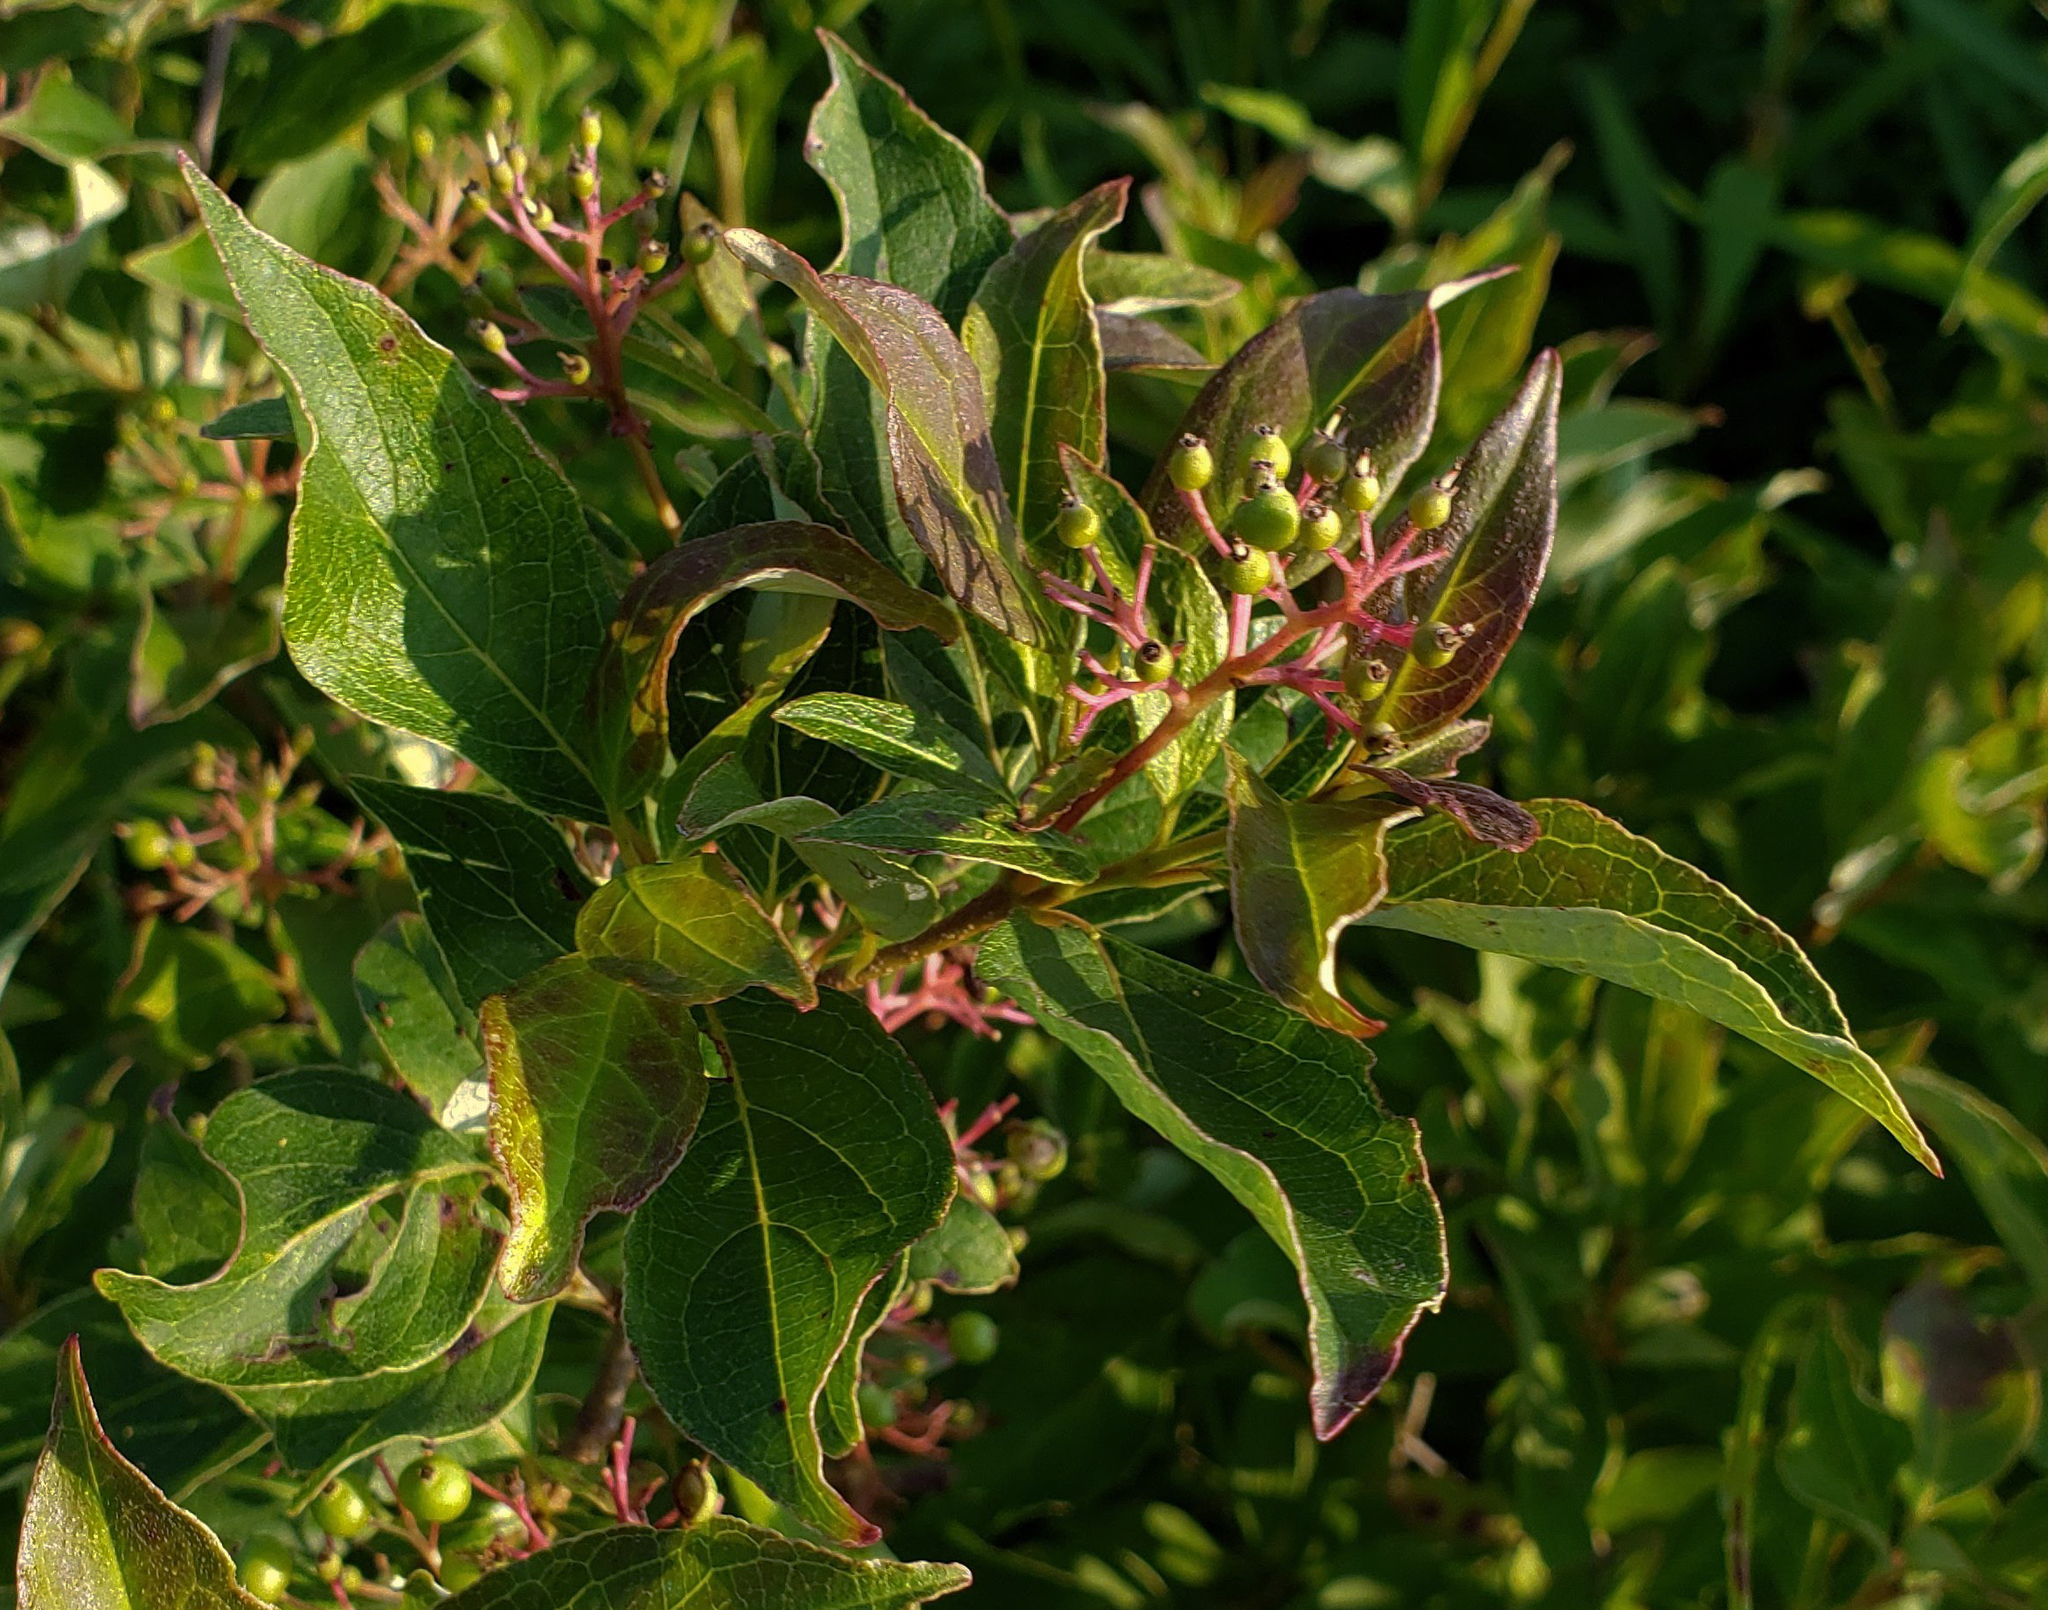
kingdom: Plantae
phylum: Tracheophyta
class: Magnoliopsida
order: Cornales
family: Cornaceae
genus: Cornus
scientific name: Cornus racemosa
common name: Panicled dogwood
